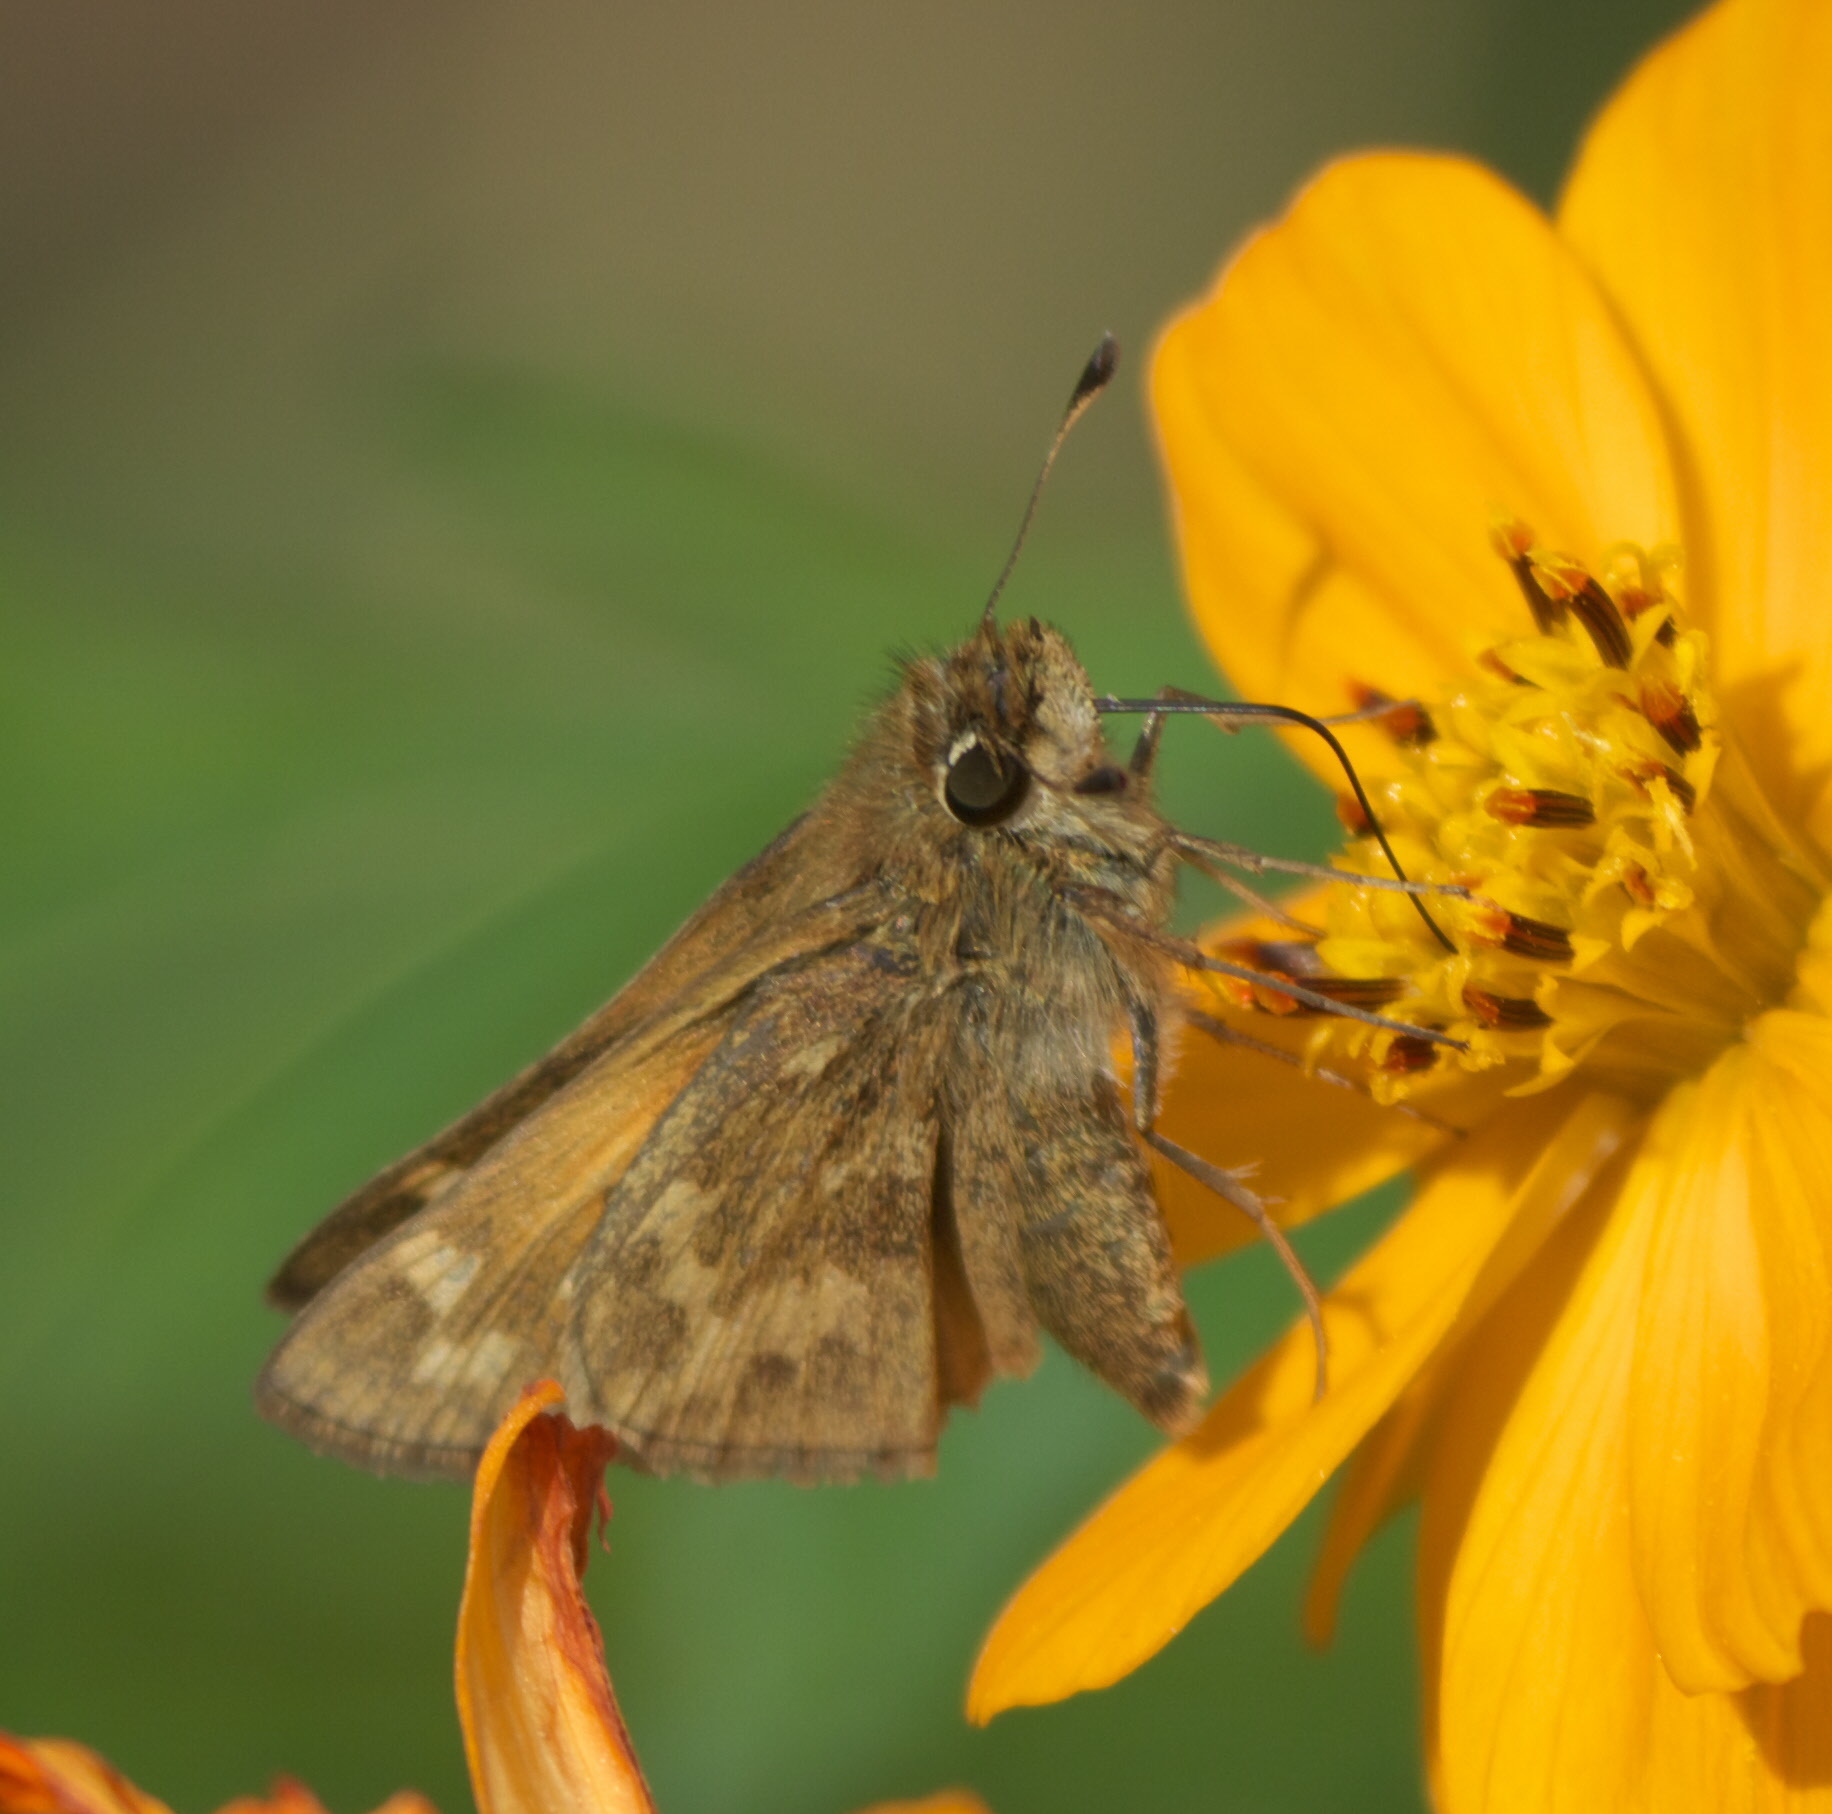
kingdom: Animalia
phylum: Arthropoda
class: Insecta
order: Lepidoptera
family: Hesperiidae
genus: Atalopedes
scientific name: Atalopedes
